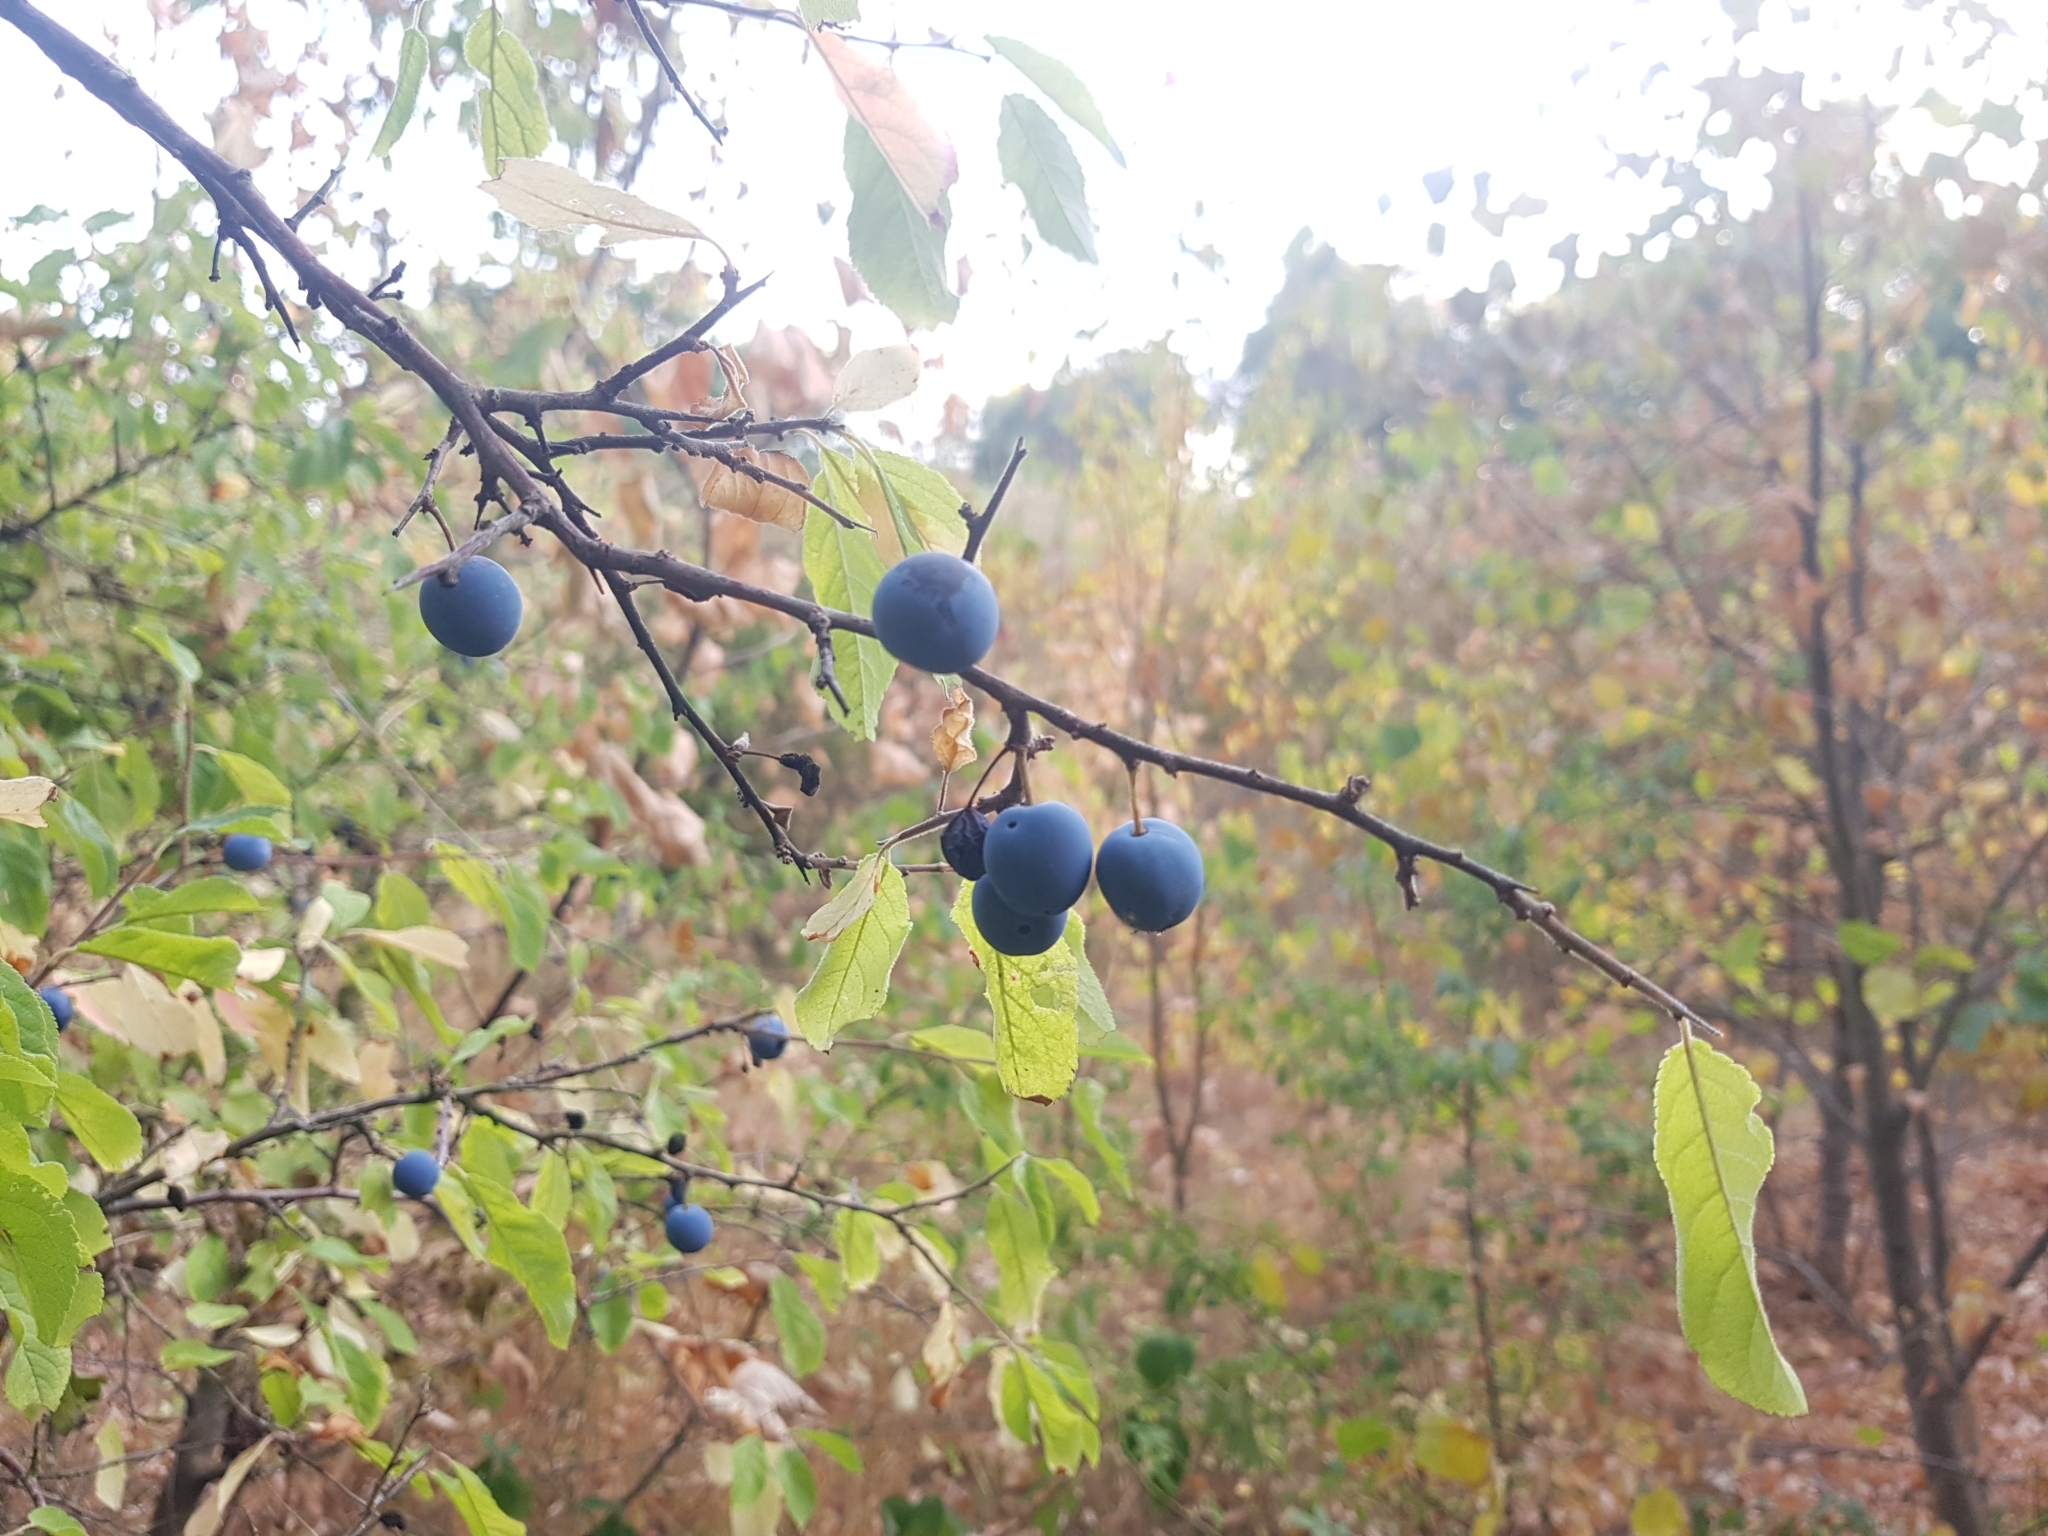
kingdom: Plantae
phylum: Tracheophyta
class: Magnoliopsida
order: Rosales
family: Rosaceae
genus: Prunus
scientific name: Prunus spinosa
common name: Blackthorn
